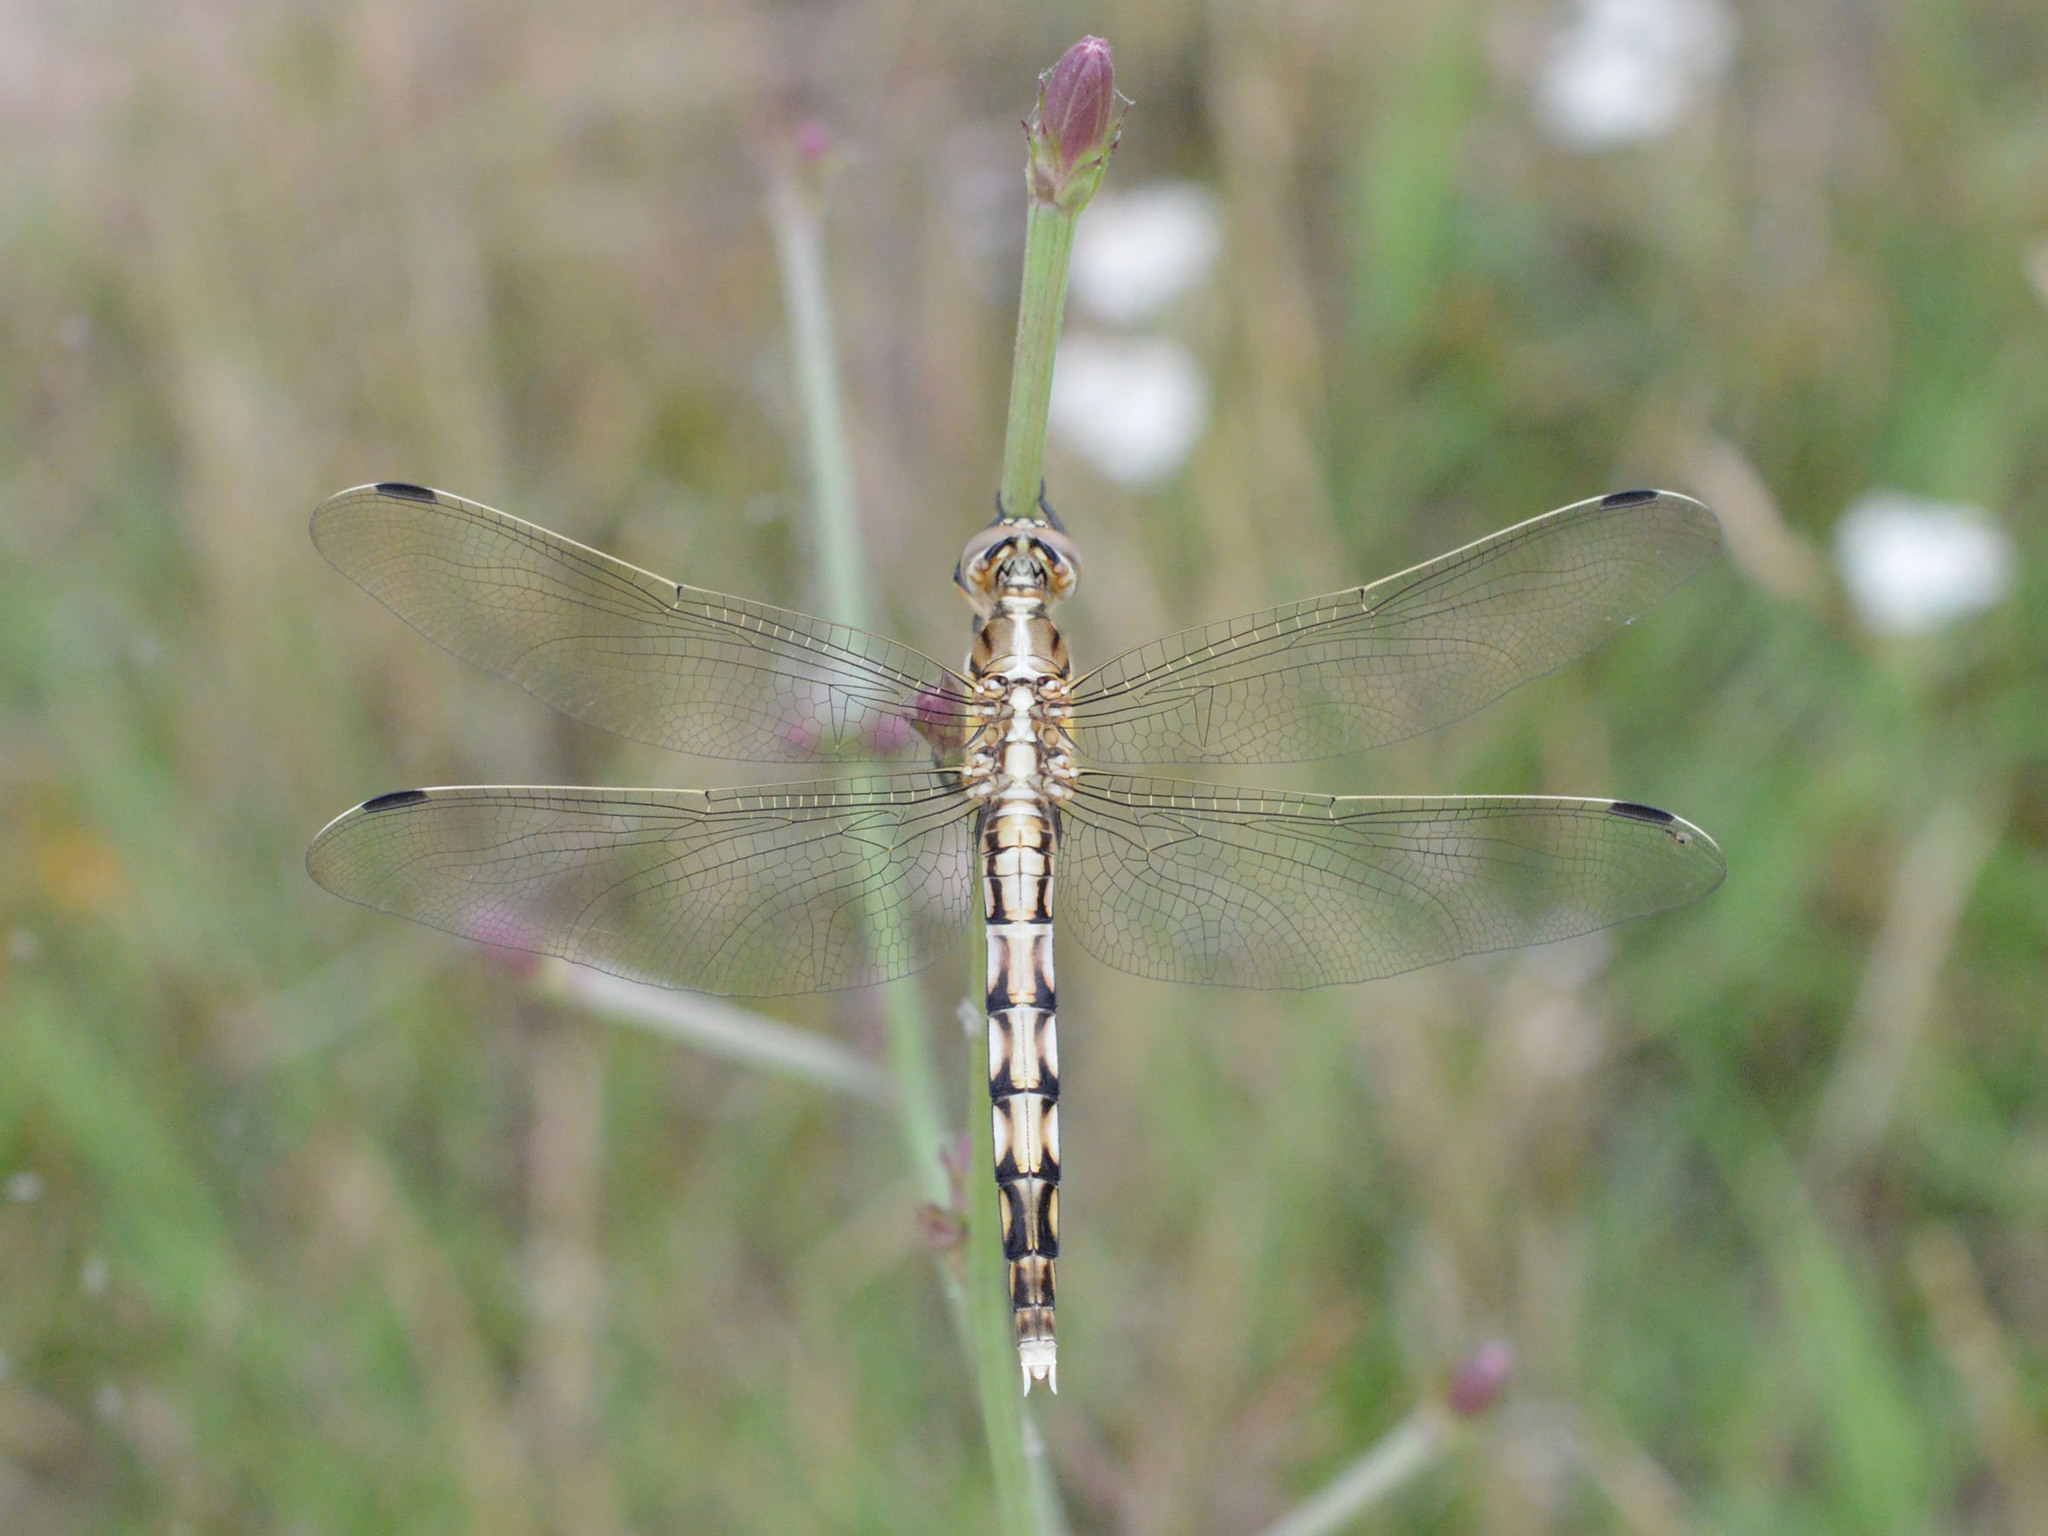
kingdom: Animalia
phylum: Arthropoda
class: Insecta
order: Odonata
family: Libellulidae
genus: Orthetrum
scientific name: Orthetrum albistylum
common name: White-tailed skimmer
